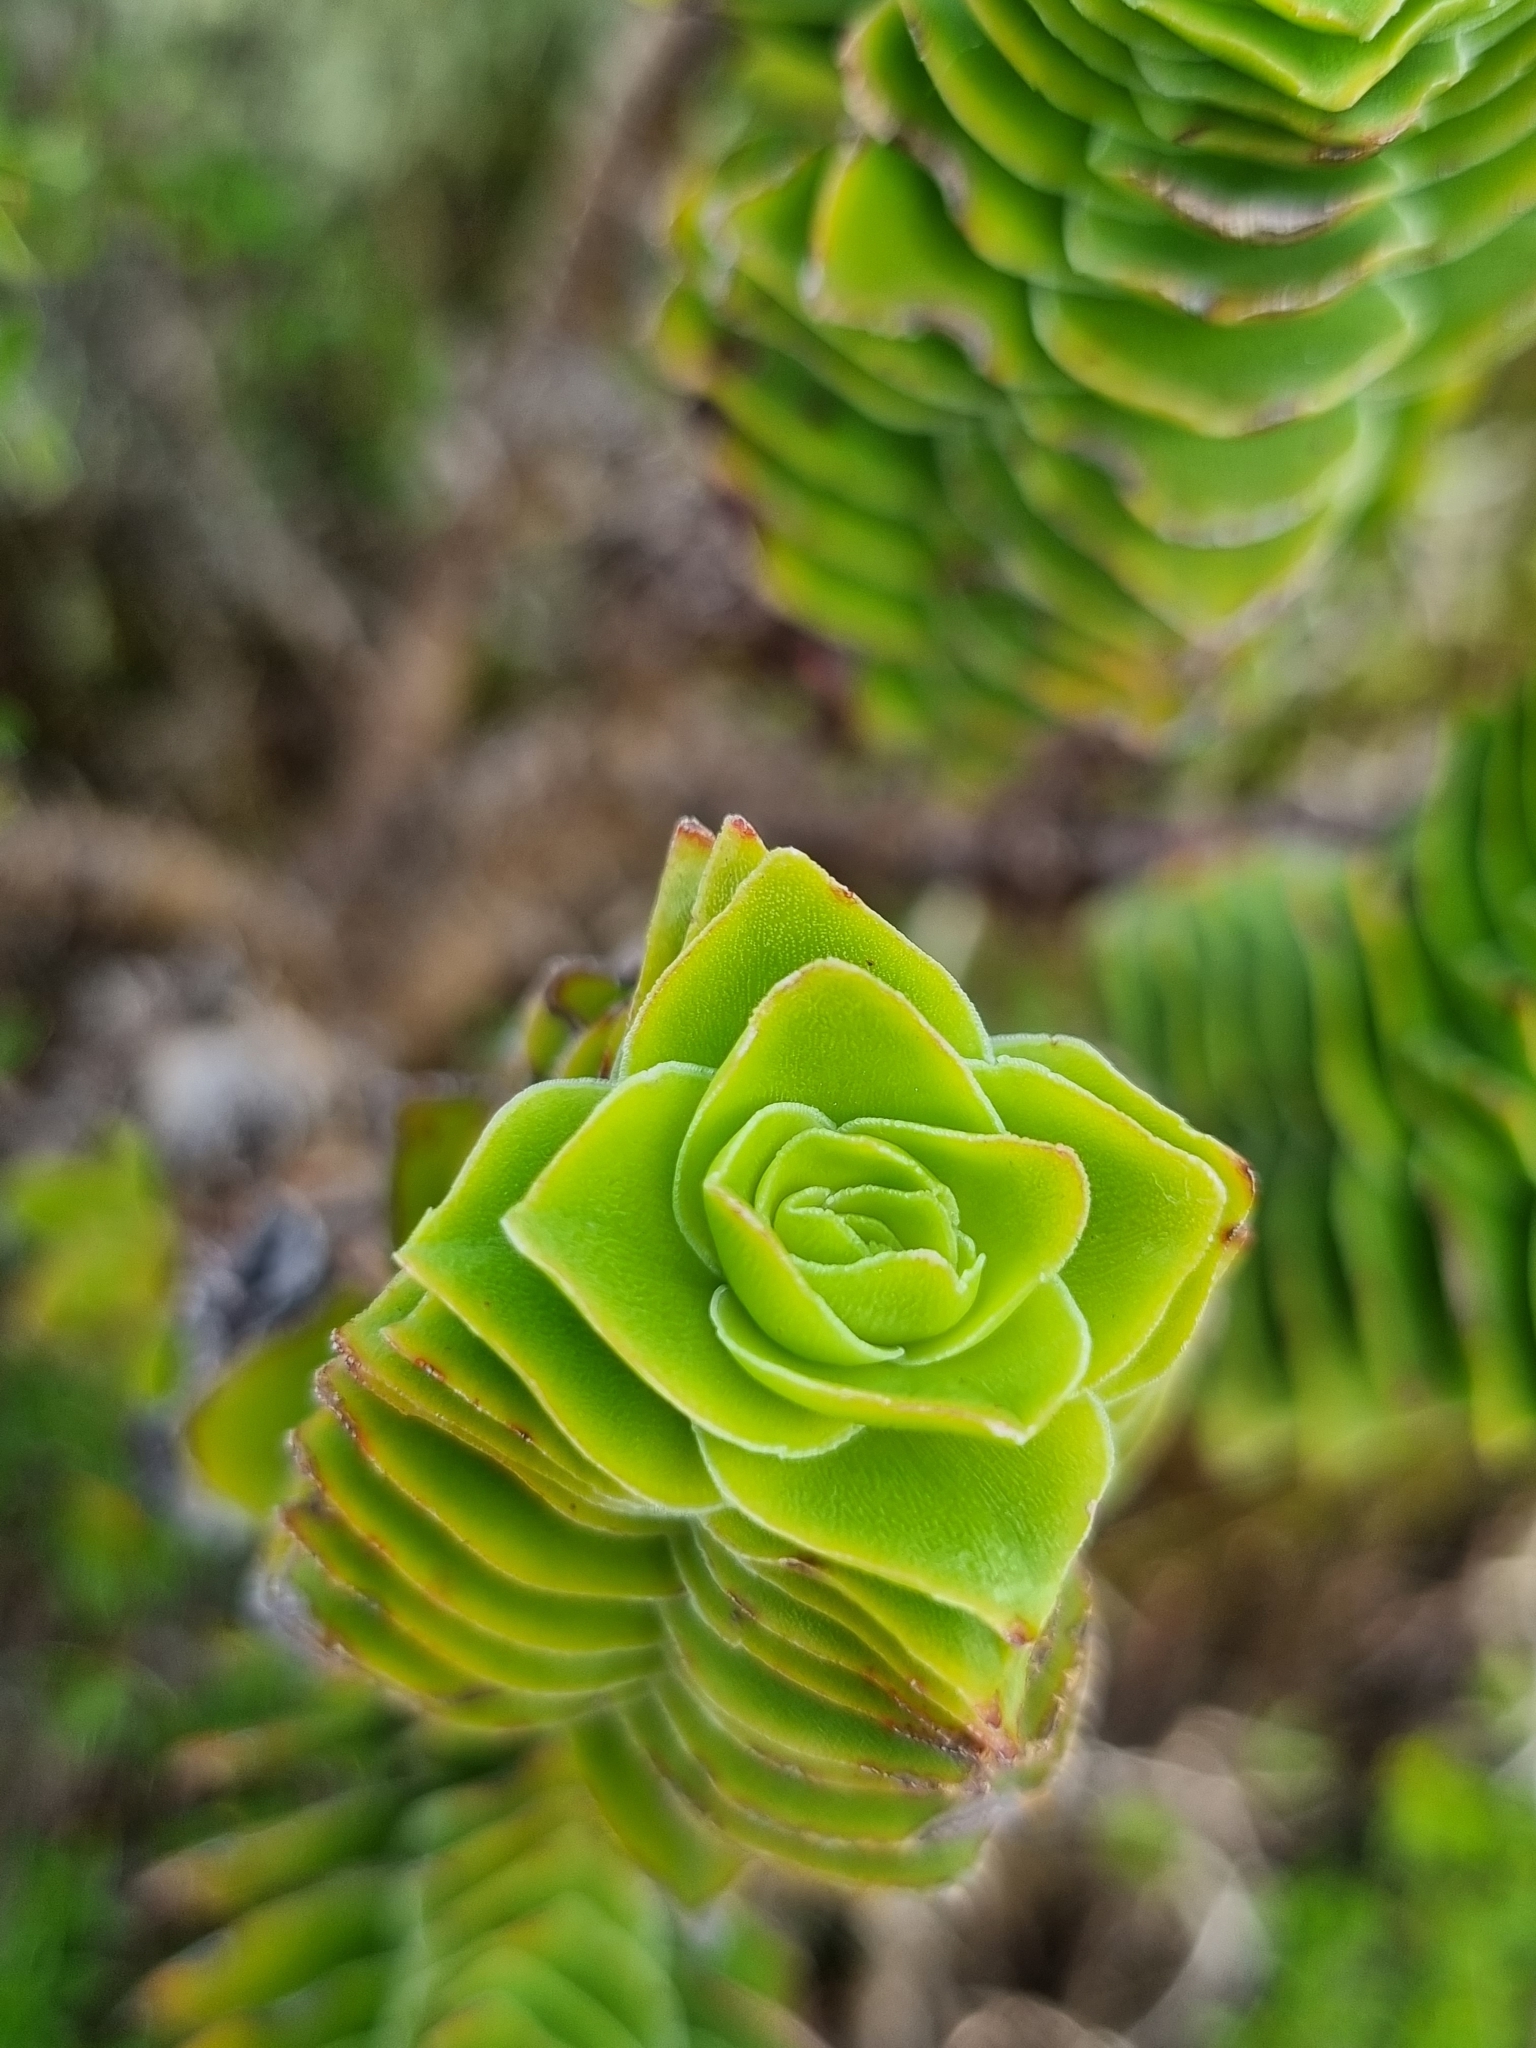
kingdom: Plantae
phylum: Tracheophyta
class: Magnoliopsida
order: Saxifragales
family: Crassulaceae
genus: Crassula
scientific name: Crassula coccinea
